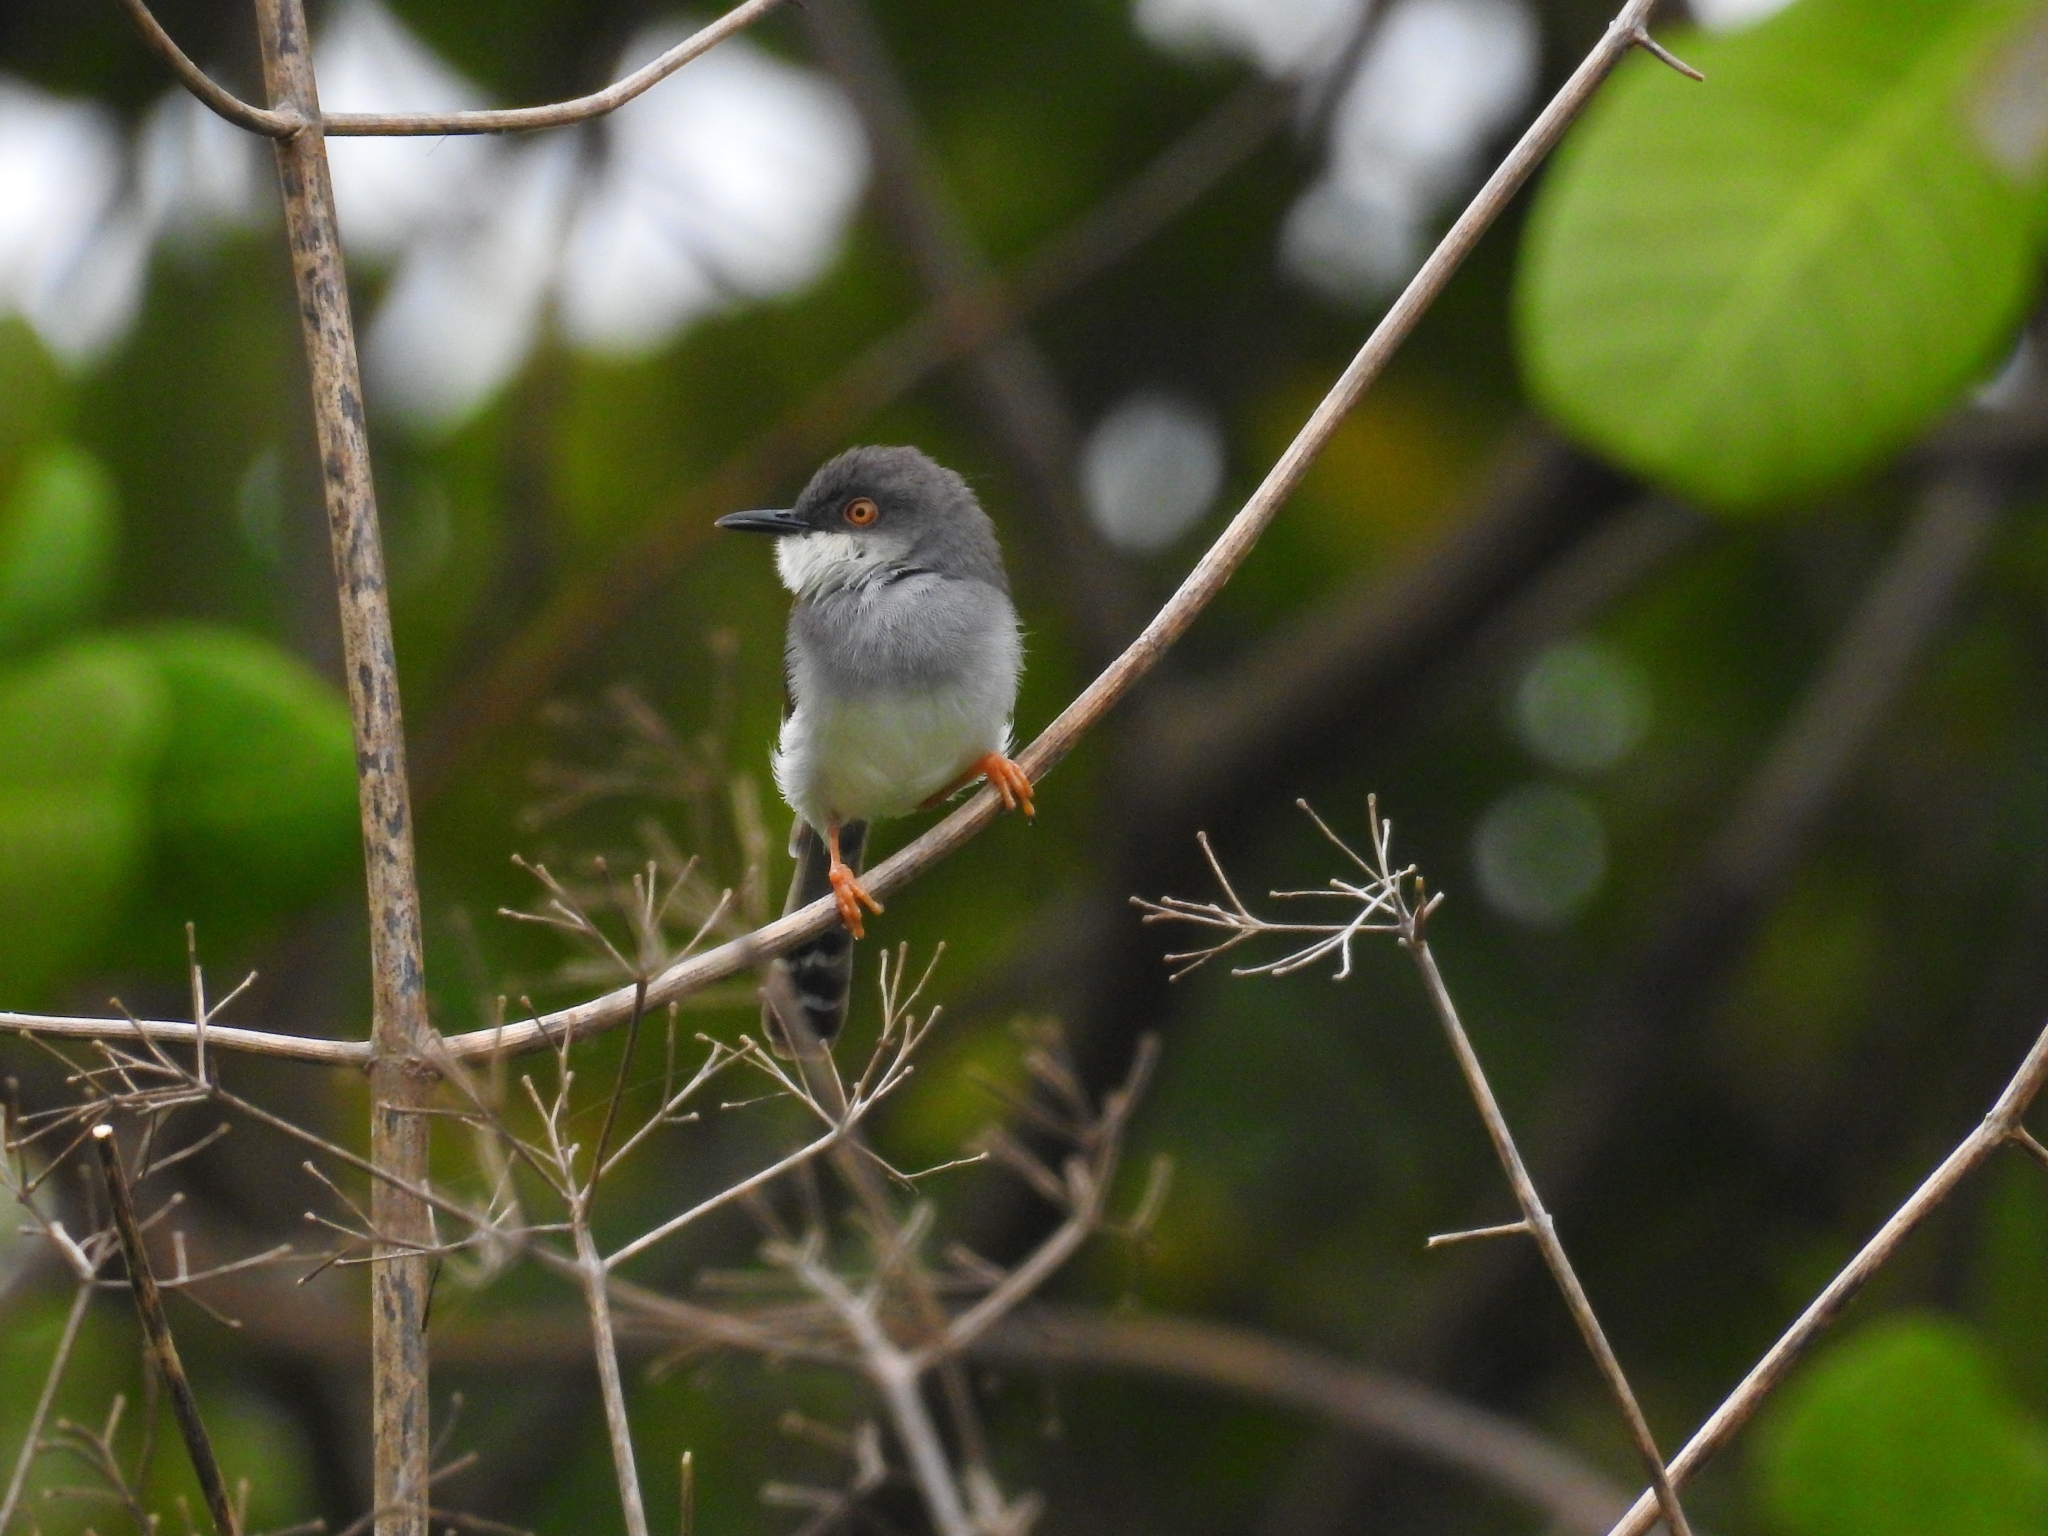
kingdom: Animalia
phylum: Chordata
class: Aves
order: Passeriformes
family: Cisticolidae
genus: Prinia
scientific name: Prinia hodgsonii
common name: Grey-breasted prinia
